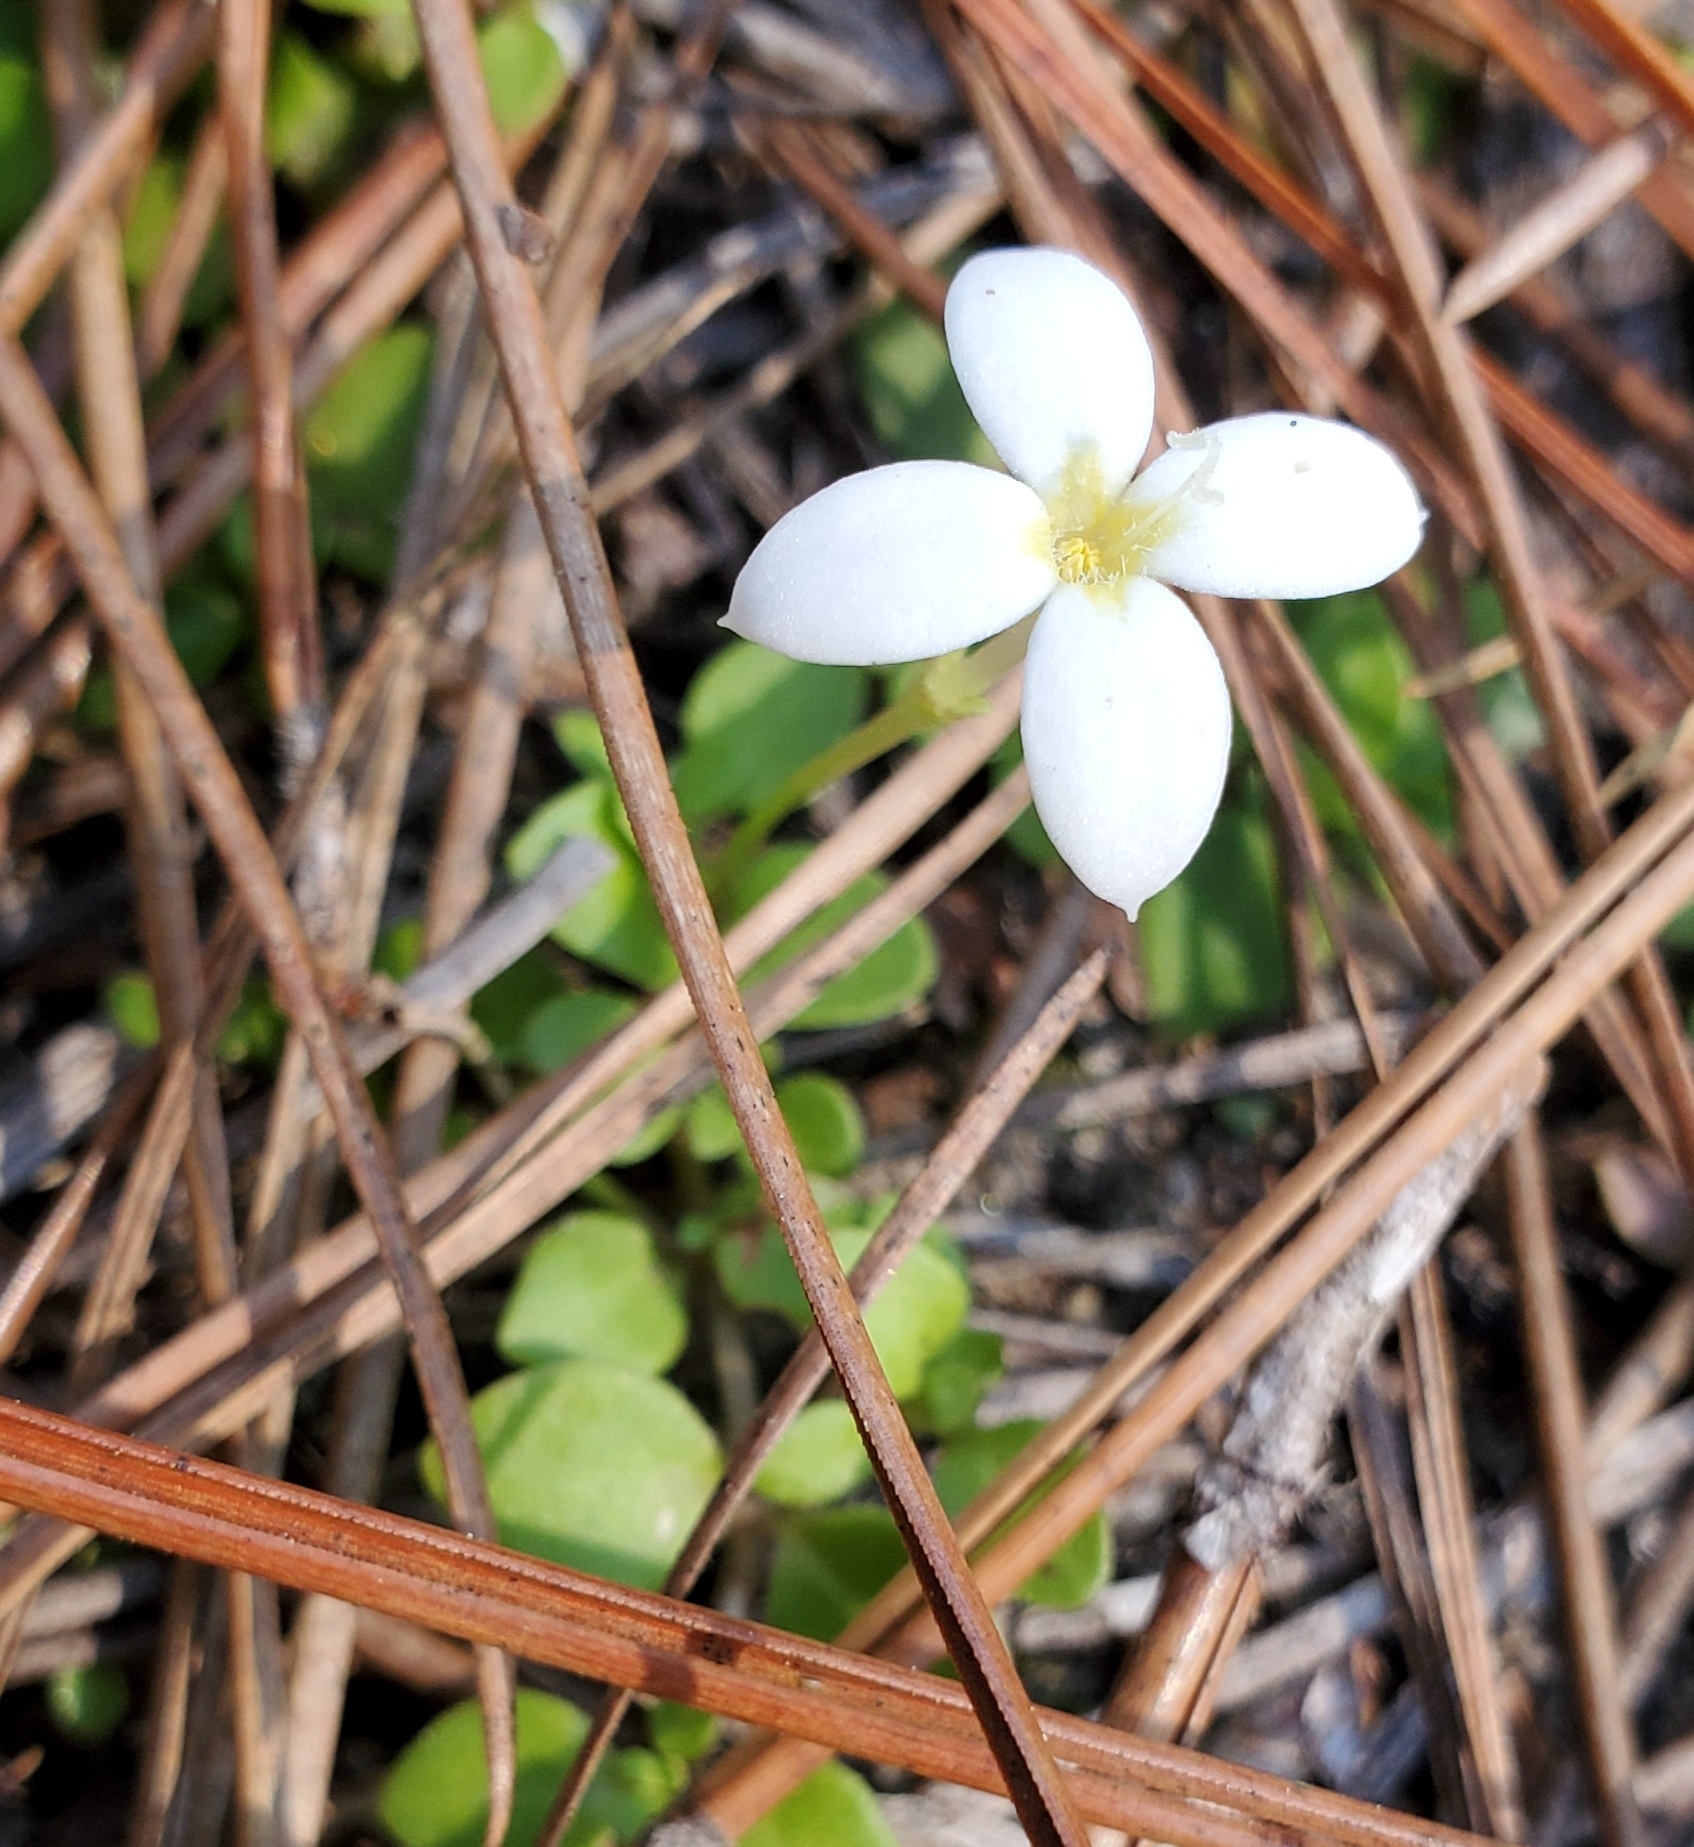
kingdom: Plantae
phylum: Tracheophyta
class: Magnoliopsida
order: Gentianales
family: Rubiaceae
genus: Houstonia
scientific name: Houstonia procumbens
